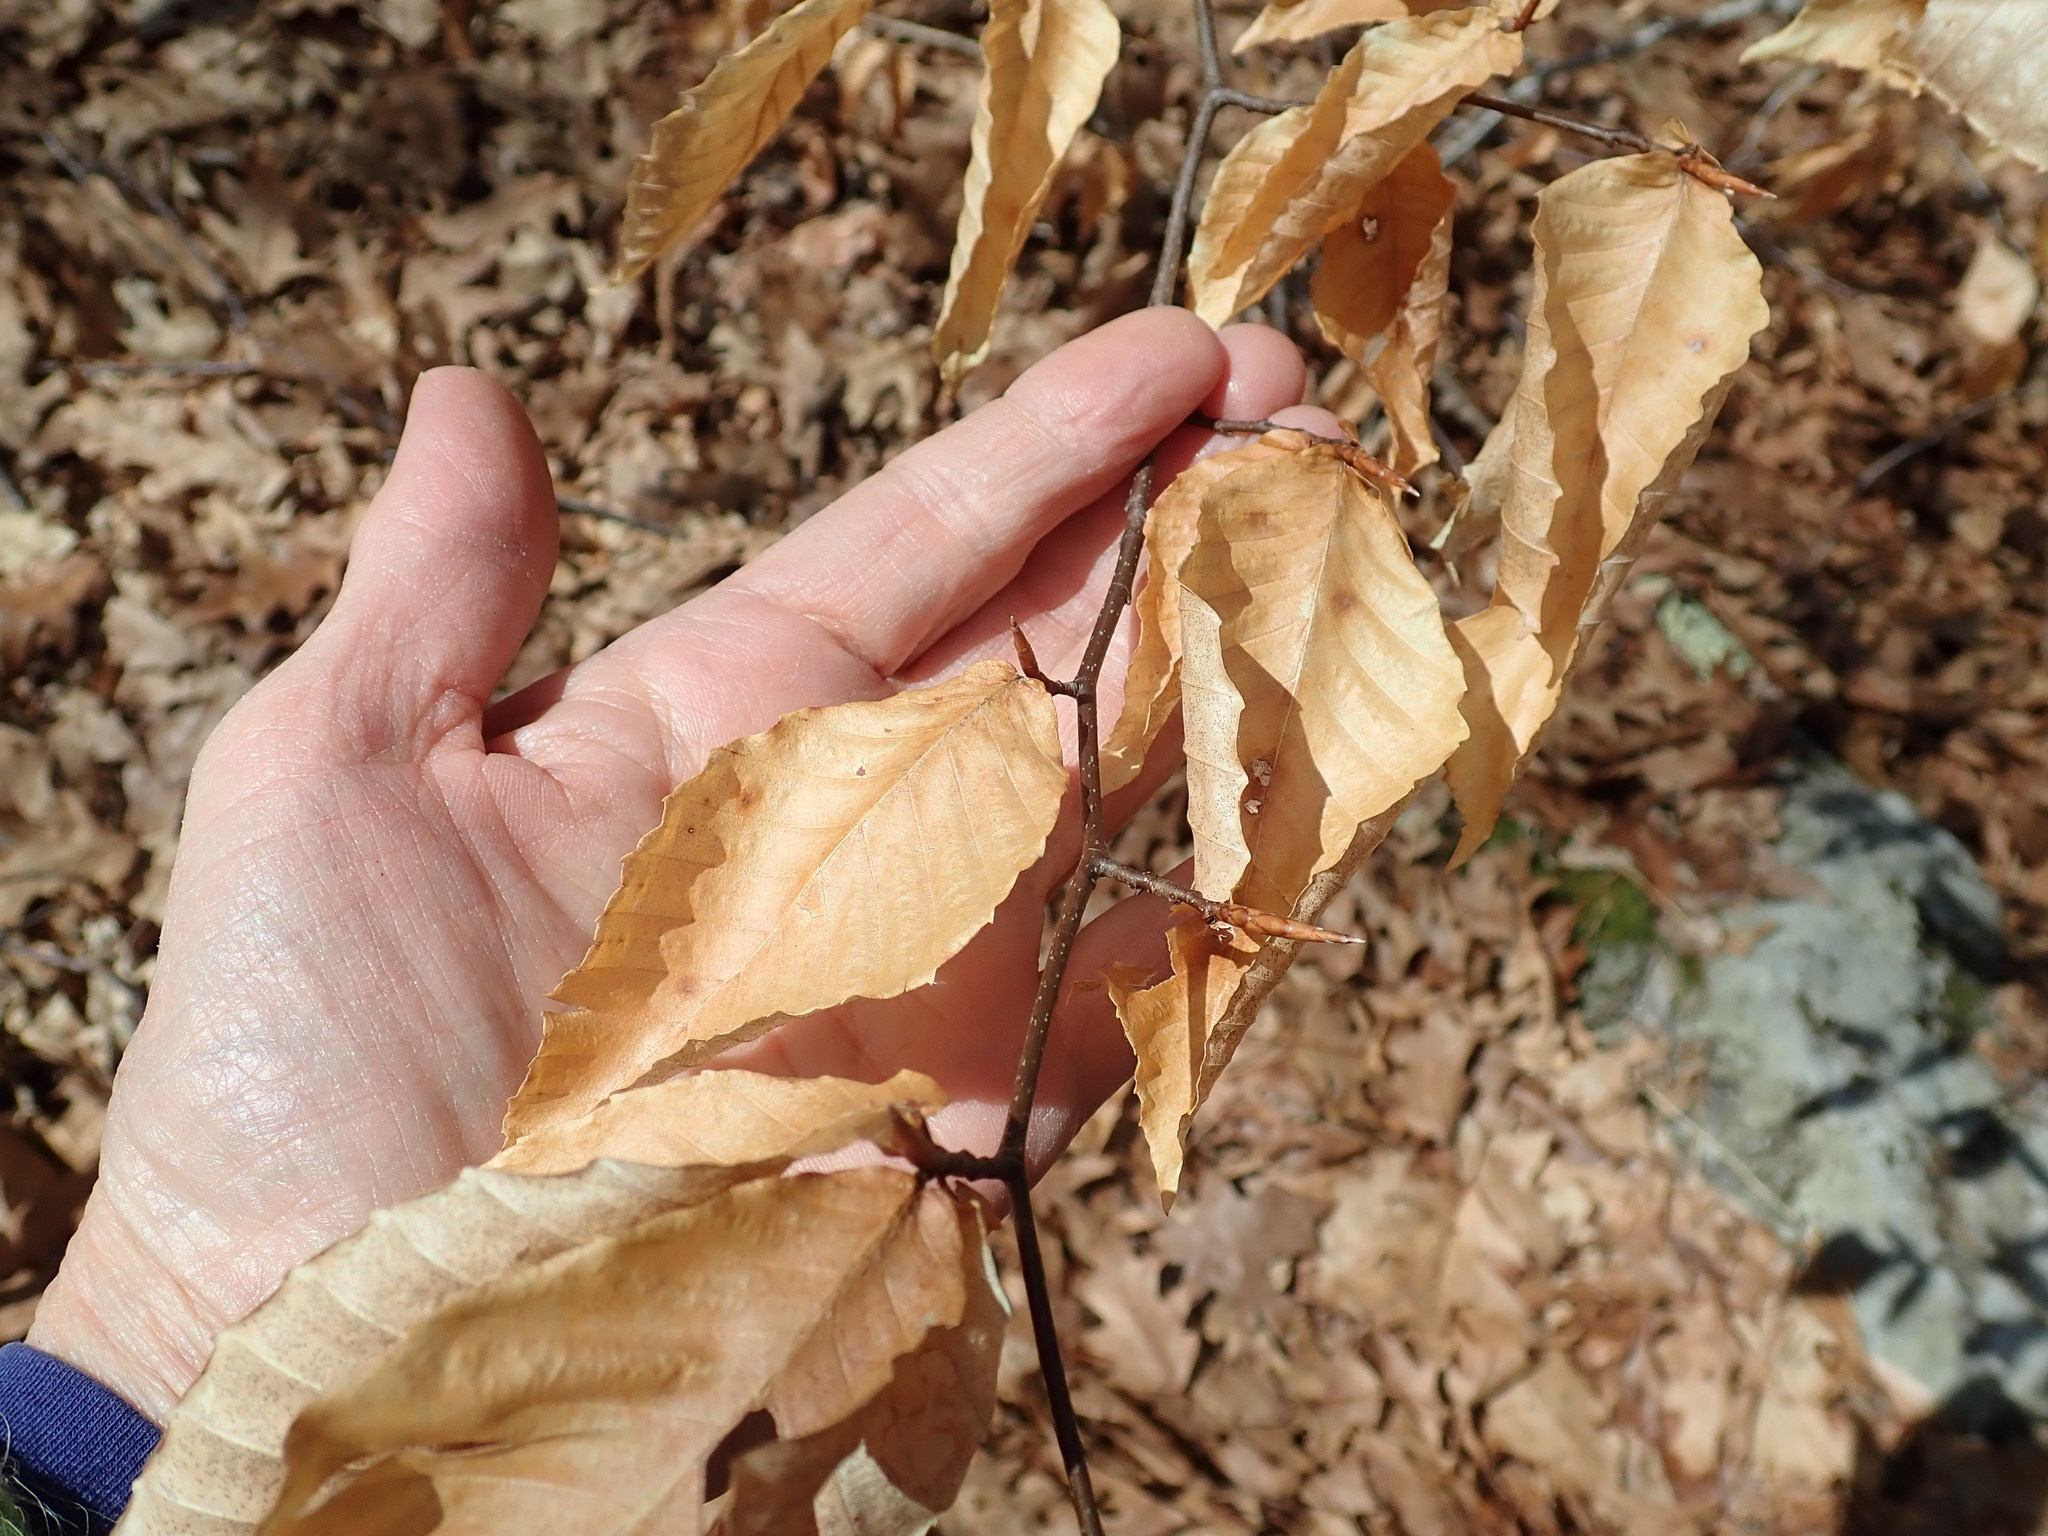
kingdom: Plantae
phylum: Tracheophyta
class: Magnoliopsida
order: Fagales
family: Fagaceae
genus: Fagus
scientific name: Fagus grandifolia
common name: American beech
